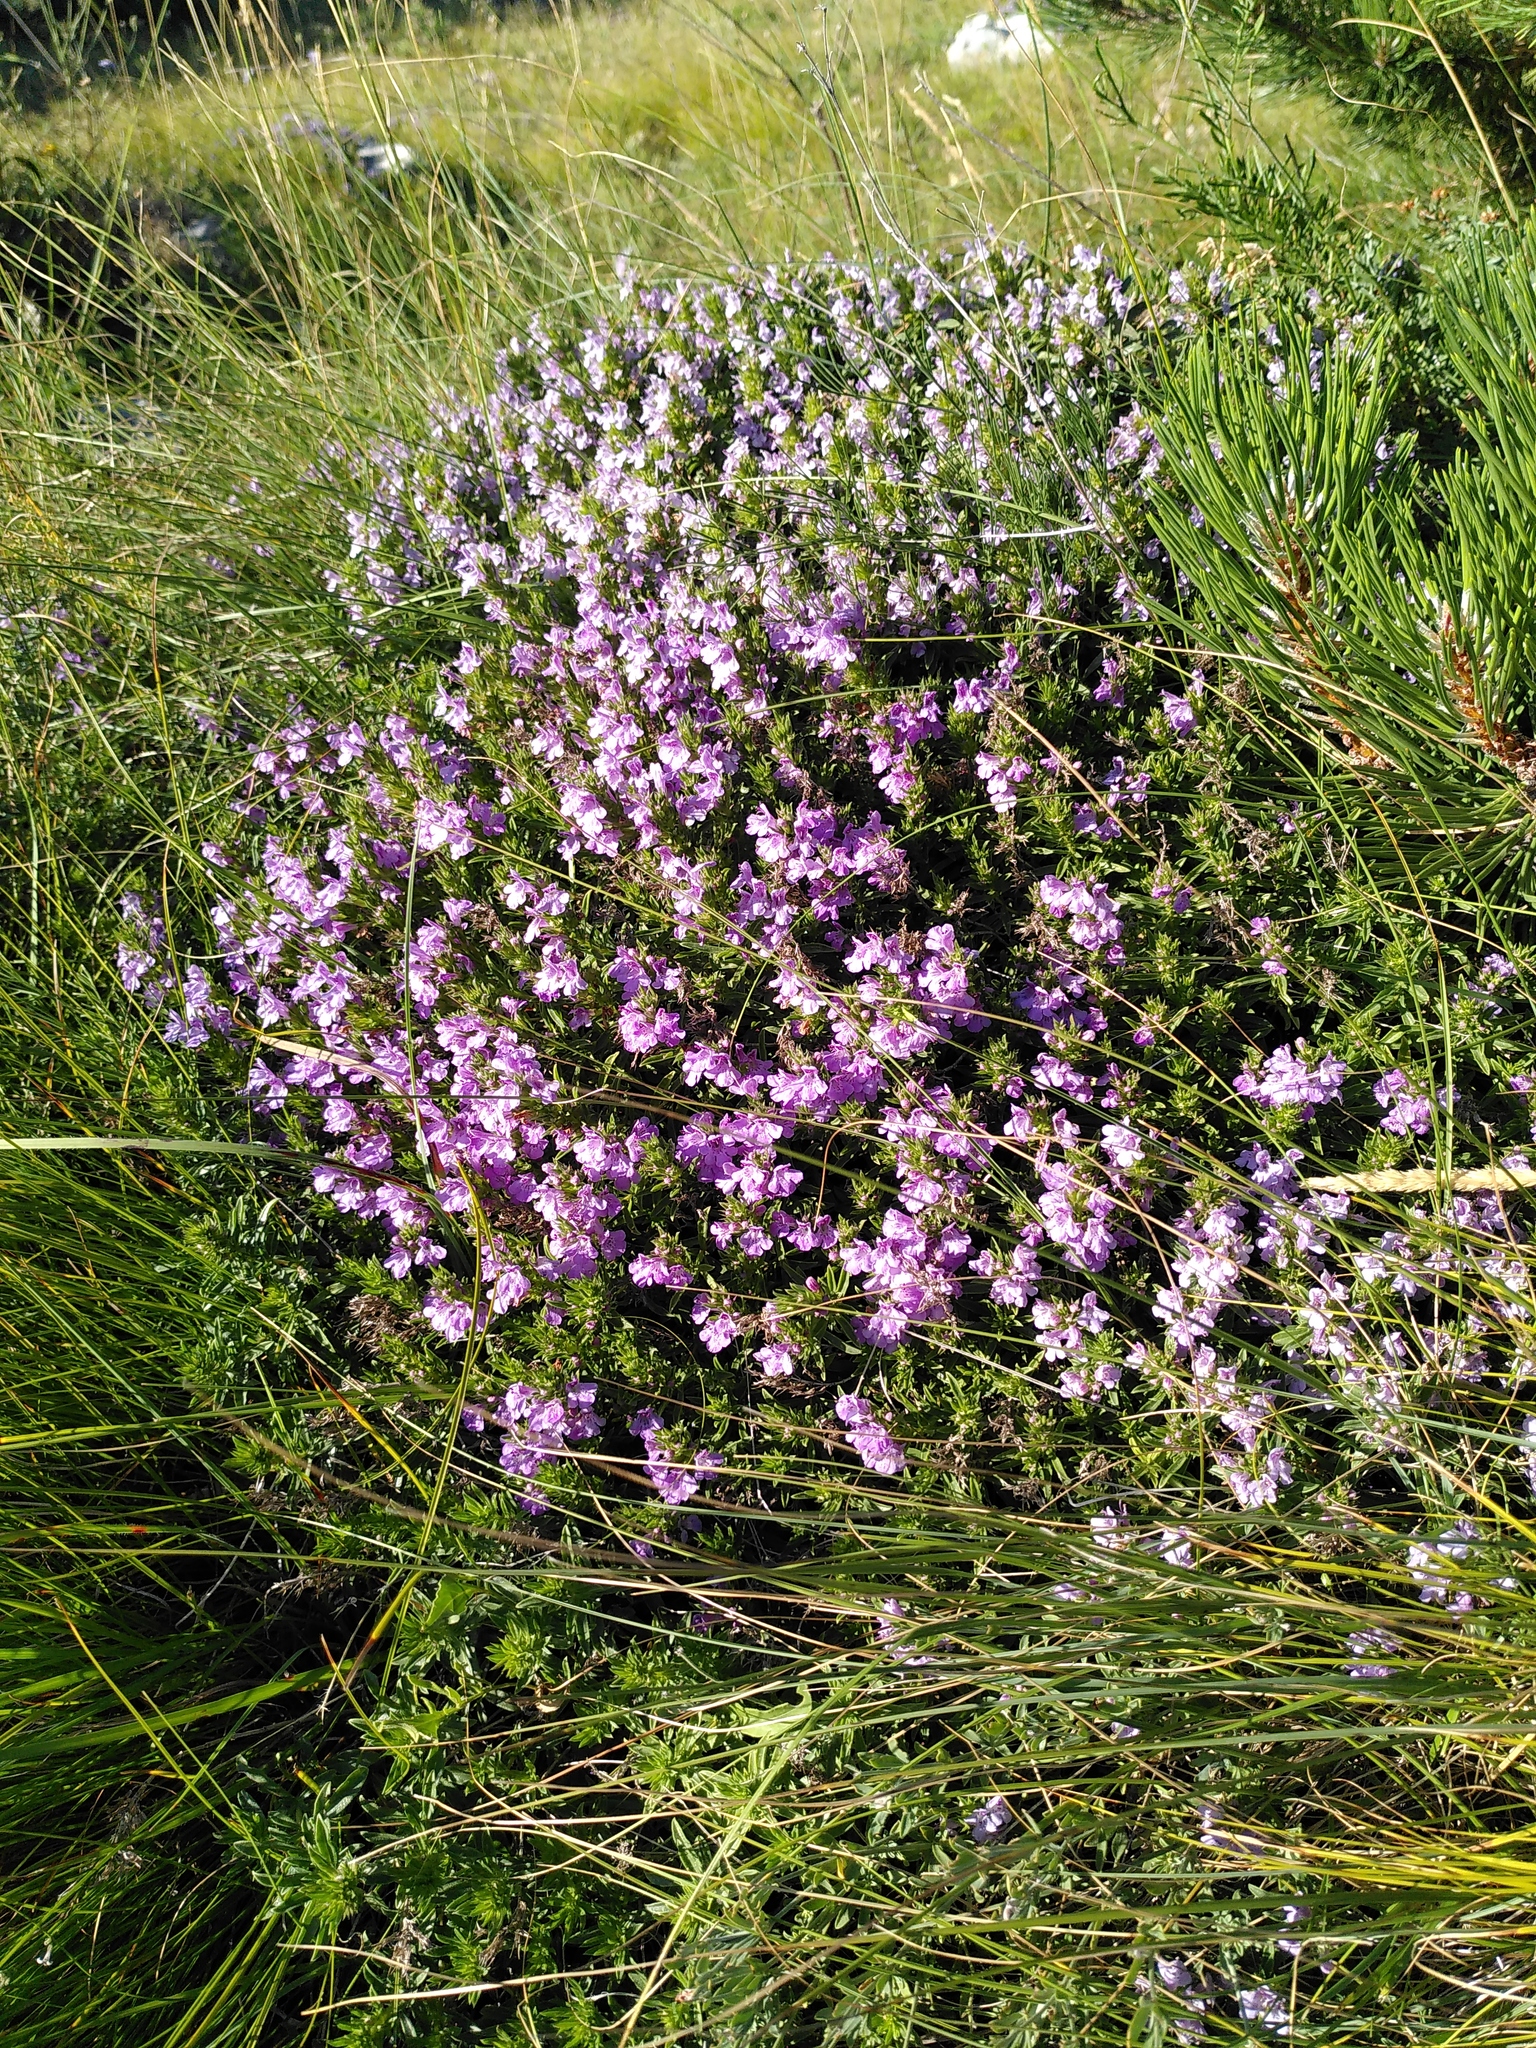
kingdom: Plantae
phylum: Tracheophyta
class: Magnoliopsida
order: Lamiales
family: Lamiaceae
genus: Satureja
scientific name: Satureja subspicata
